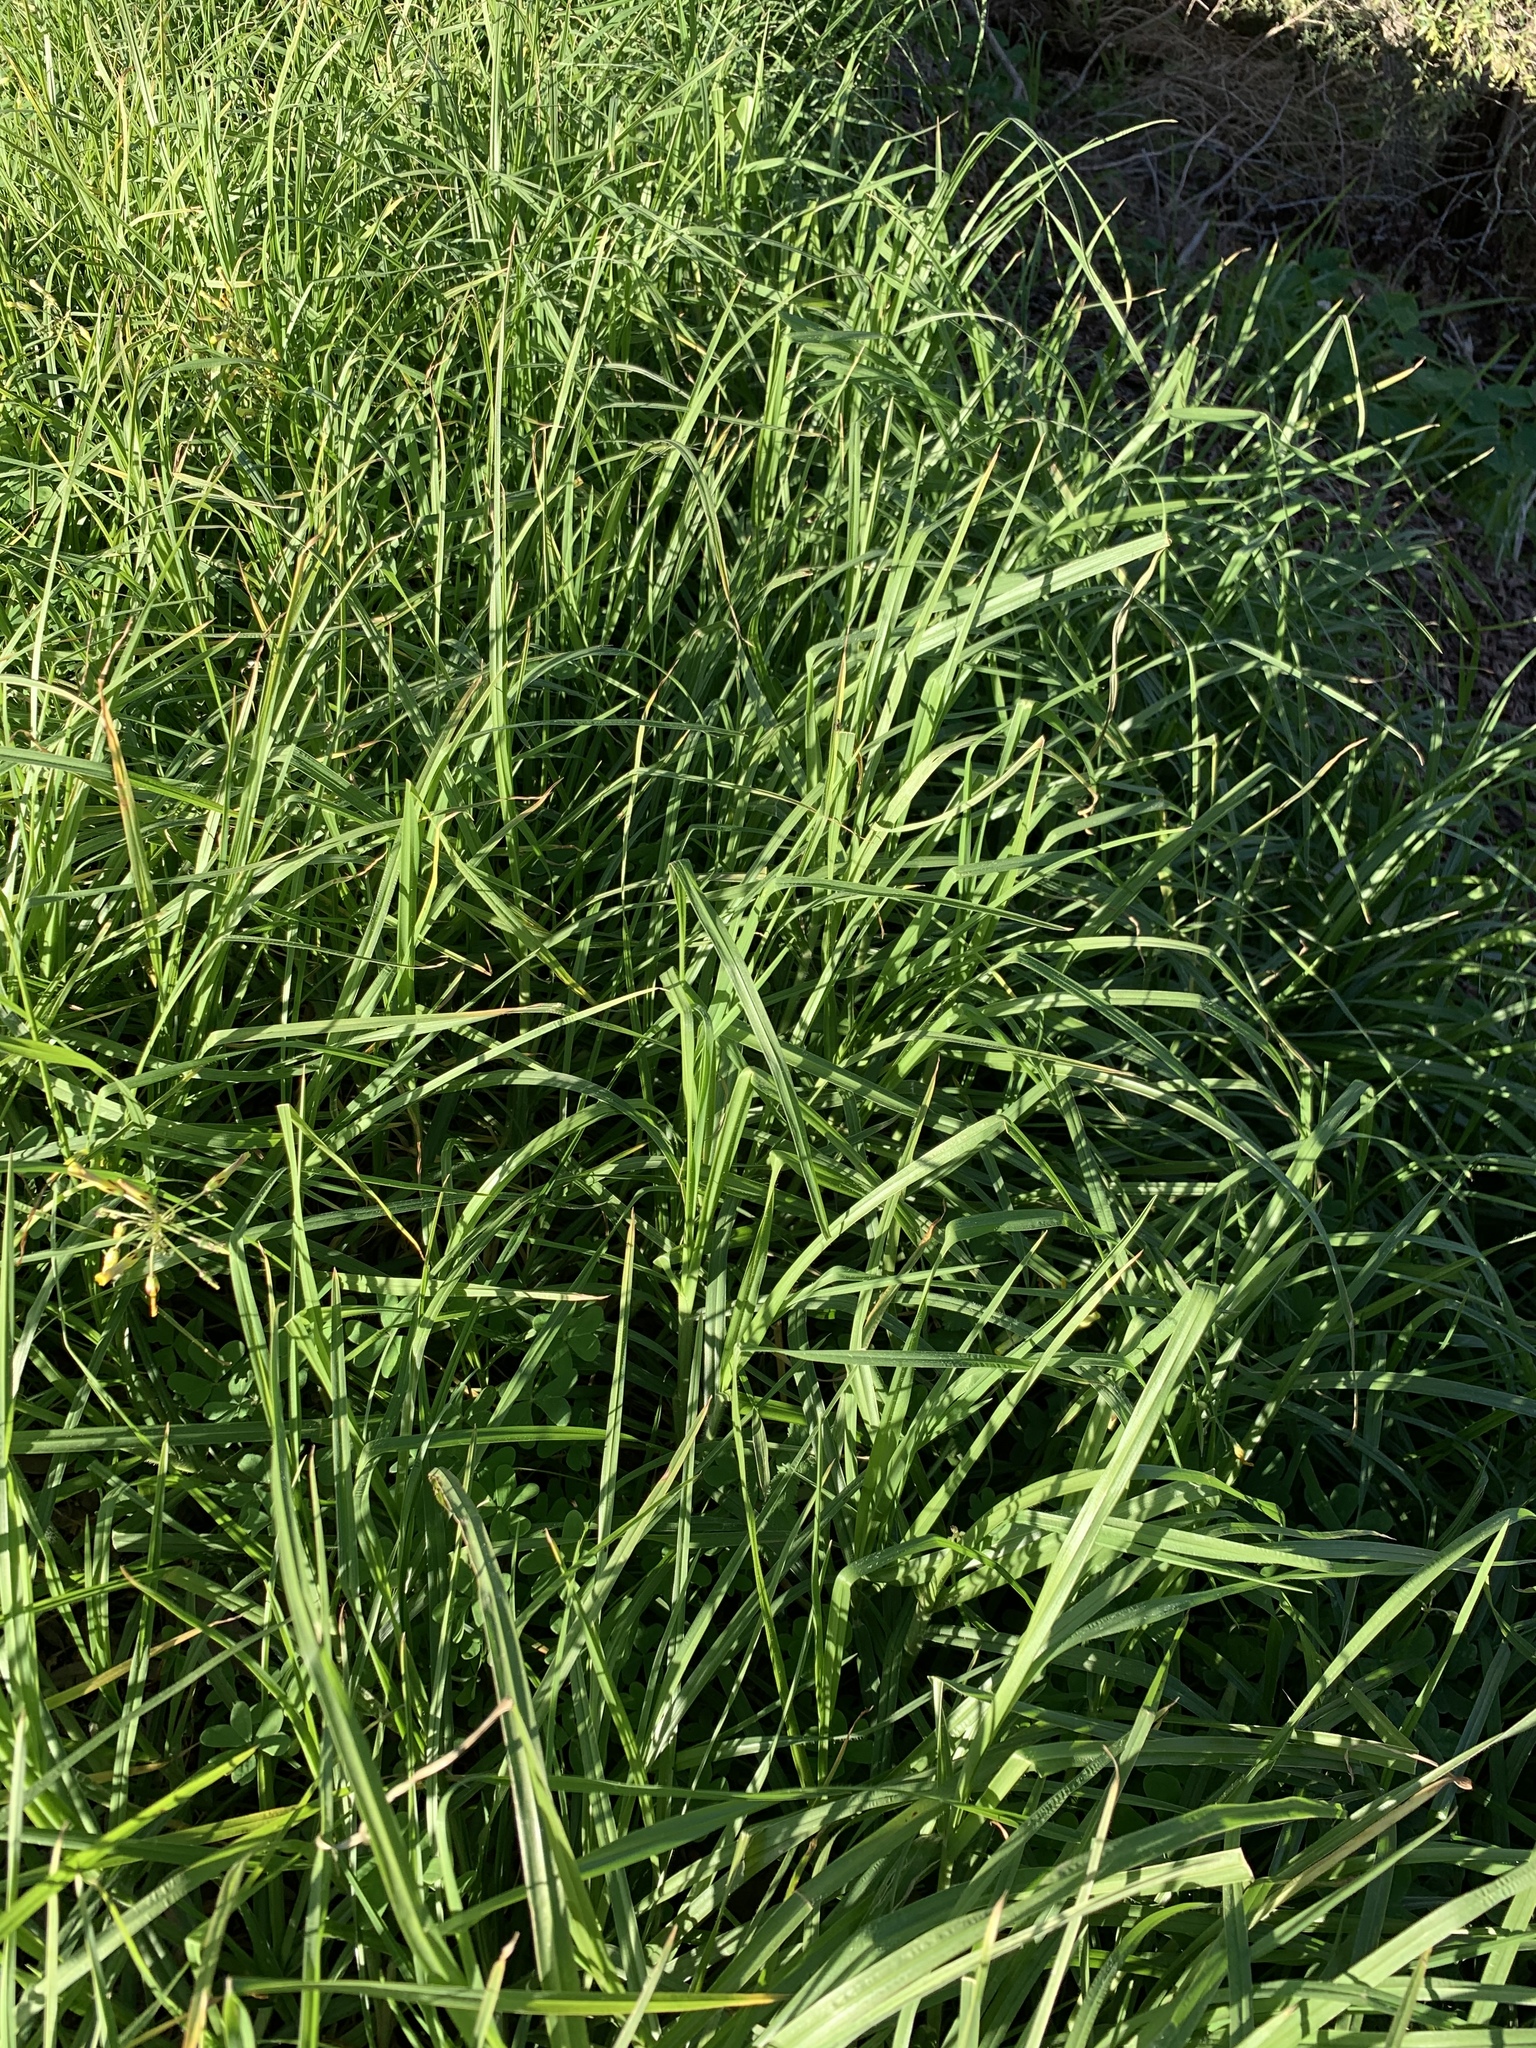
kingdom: Plantae
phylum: Tracheophyta
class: Liliopsida
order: Poales
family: Poaceae
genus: Cenchrus
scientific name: Cenchrus clandestinus
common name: Kikuyugrass
